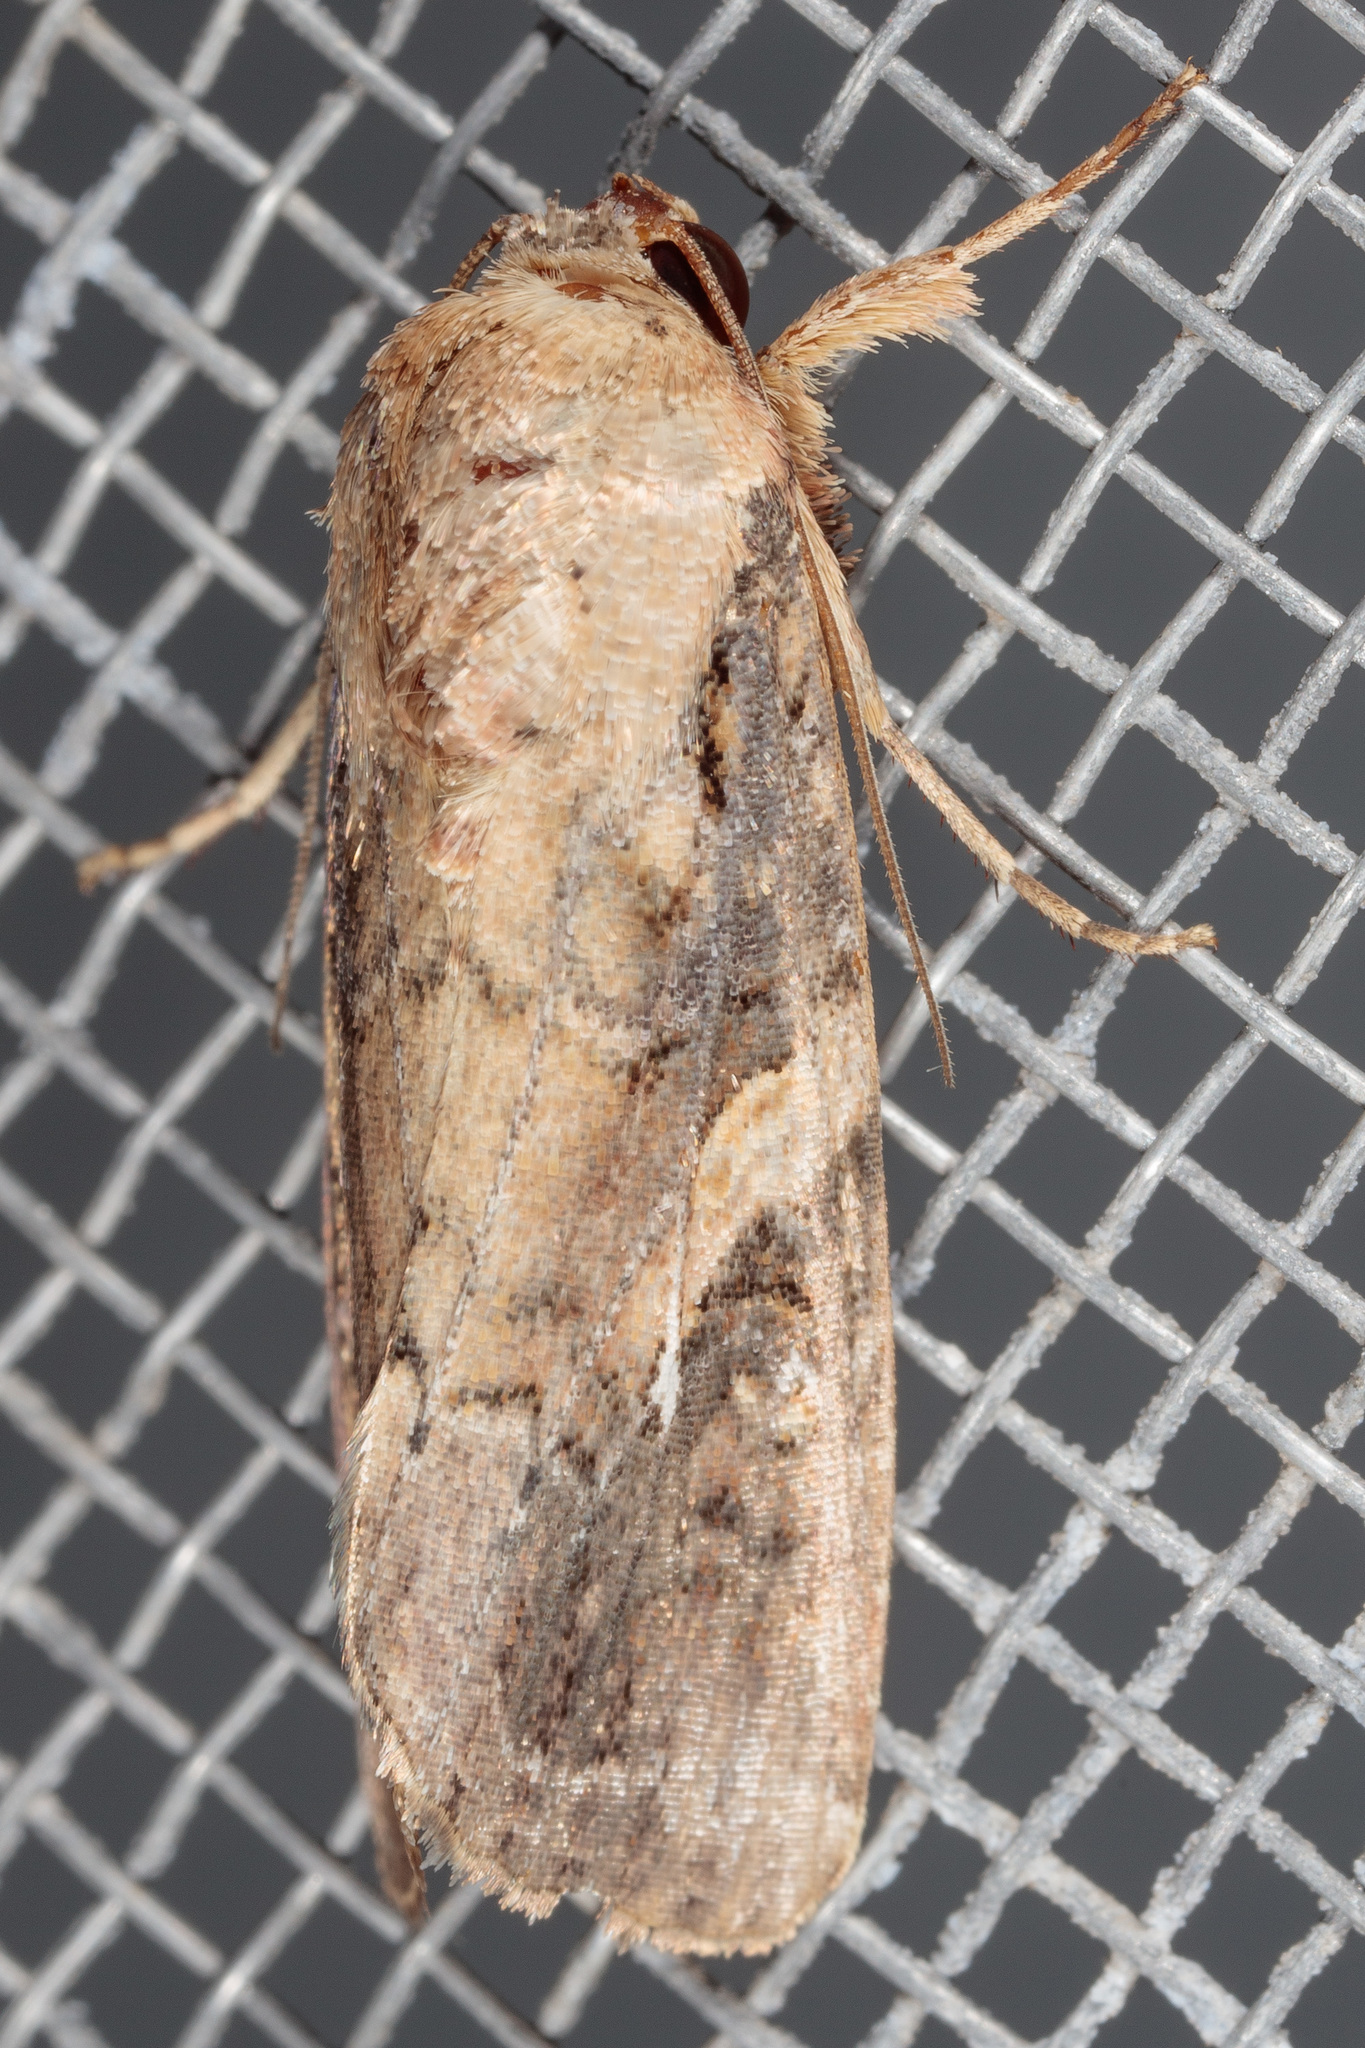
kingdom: Animalia
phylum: Arthropoda
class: Insecta
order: Lepidoptera
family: Noctuidae
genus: Spodoptera
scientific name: Spodoptera frugiperda
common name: Fall armyworm
